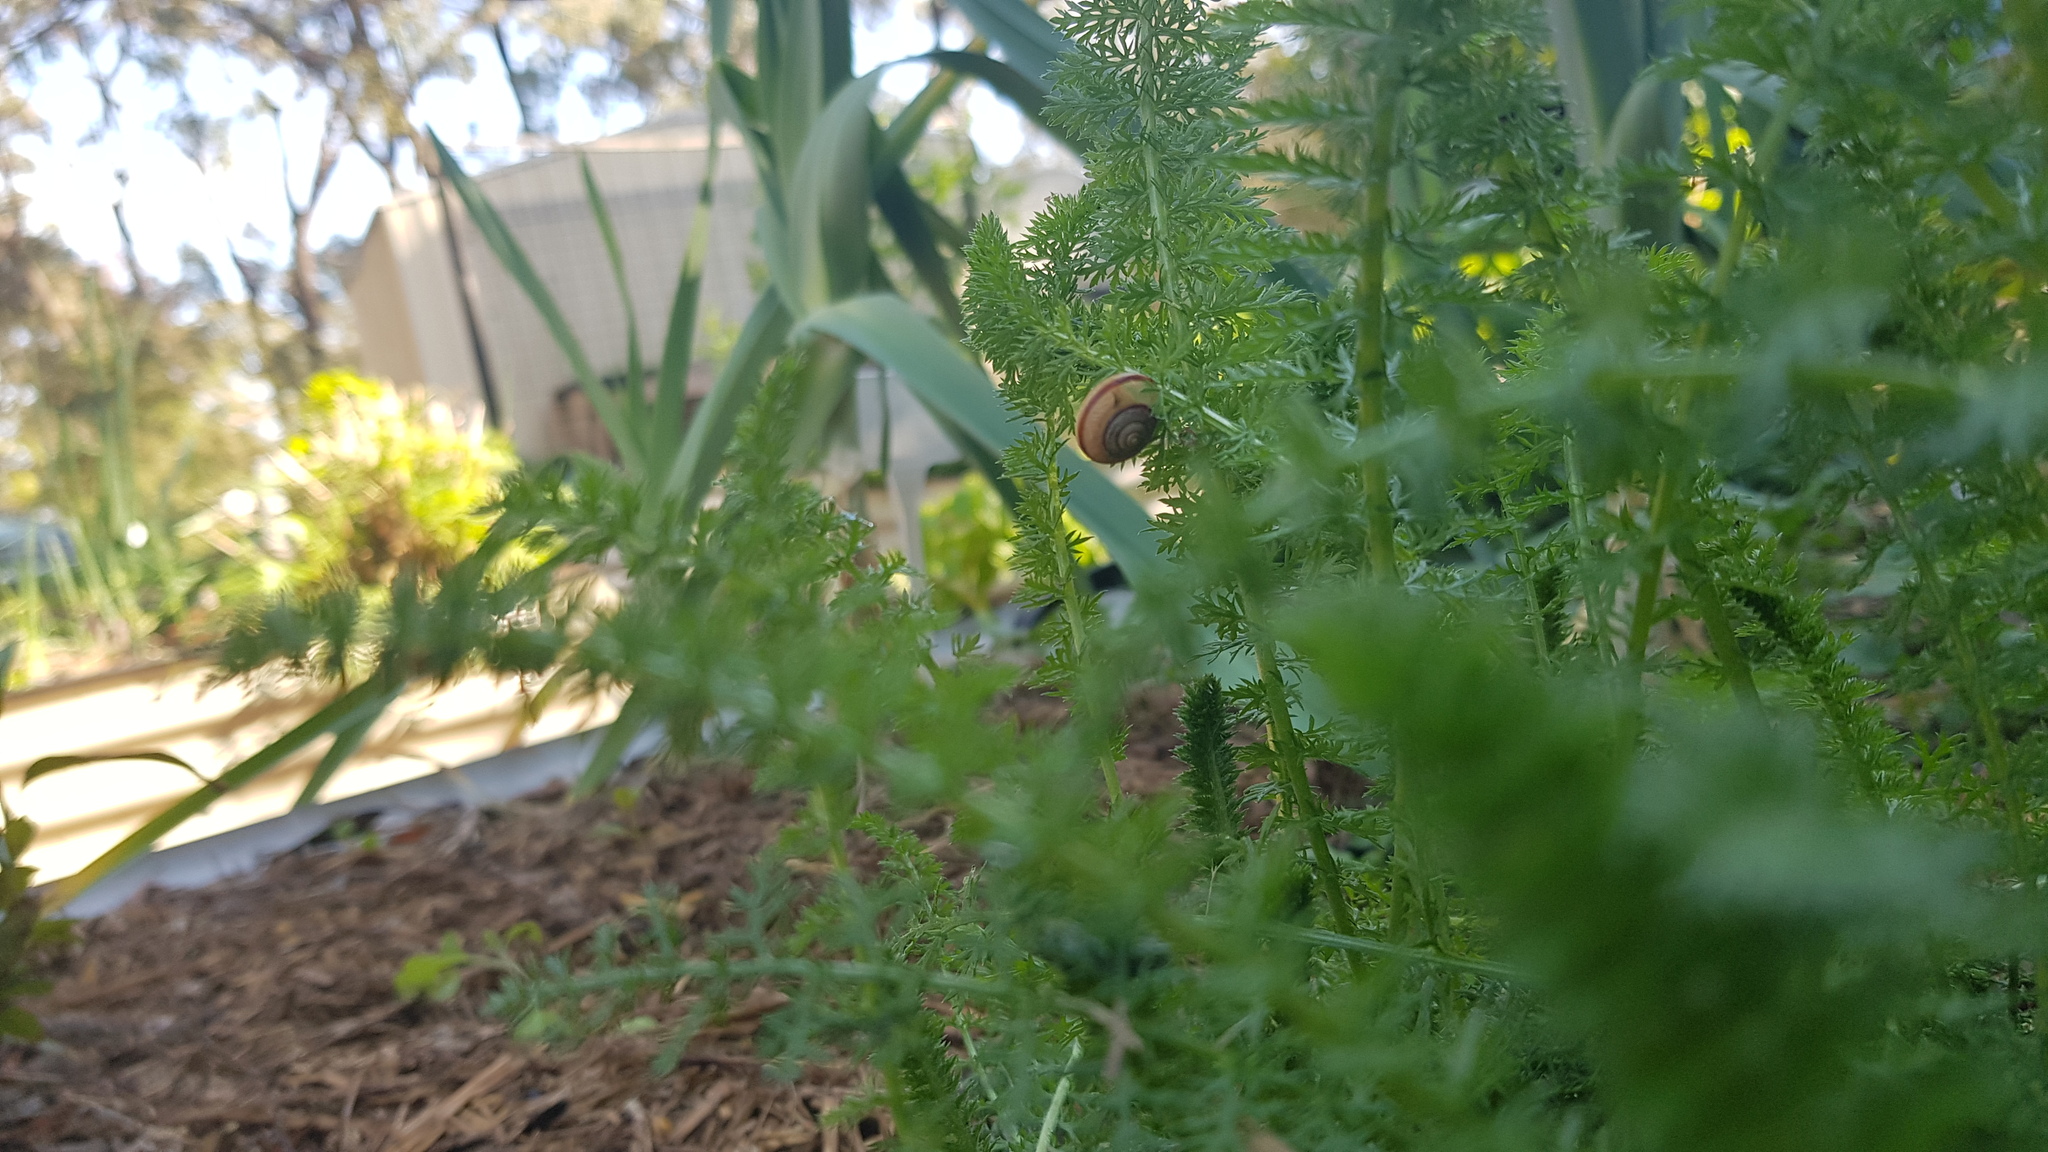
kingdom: Animalia
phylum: Mollusca
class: Gastropoda
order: Stylommatophora
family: Camaenidae
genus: Bradybaena
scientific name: Bradybaena similaris
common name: Asian trampsnail
